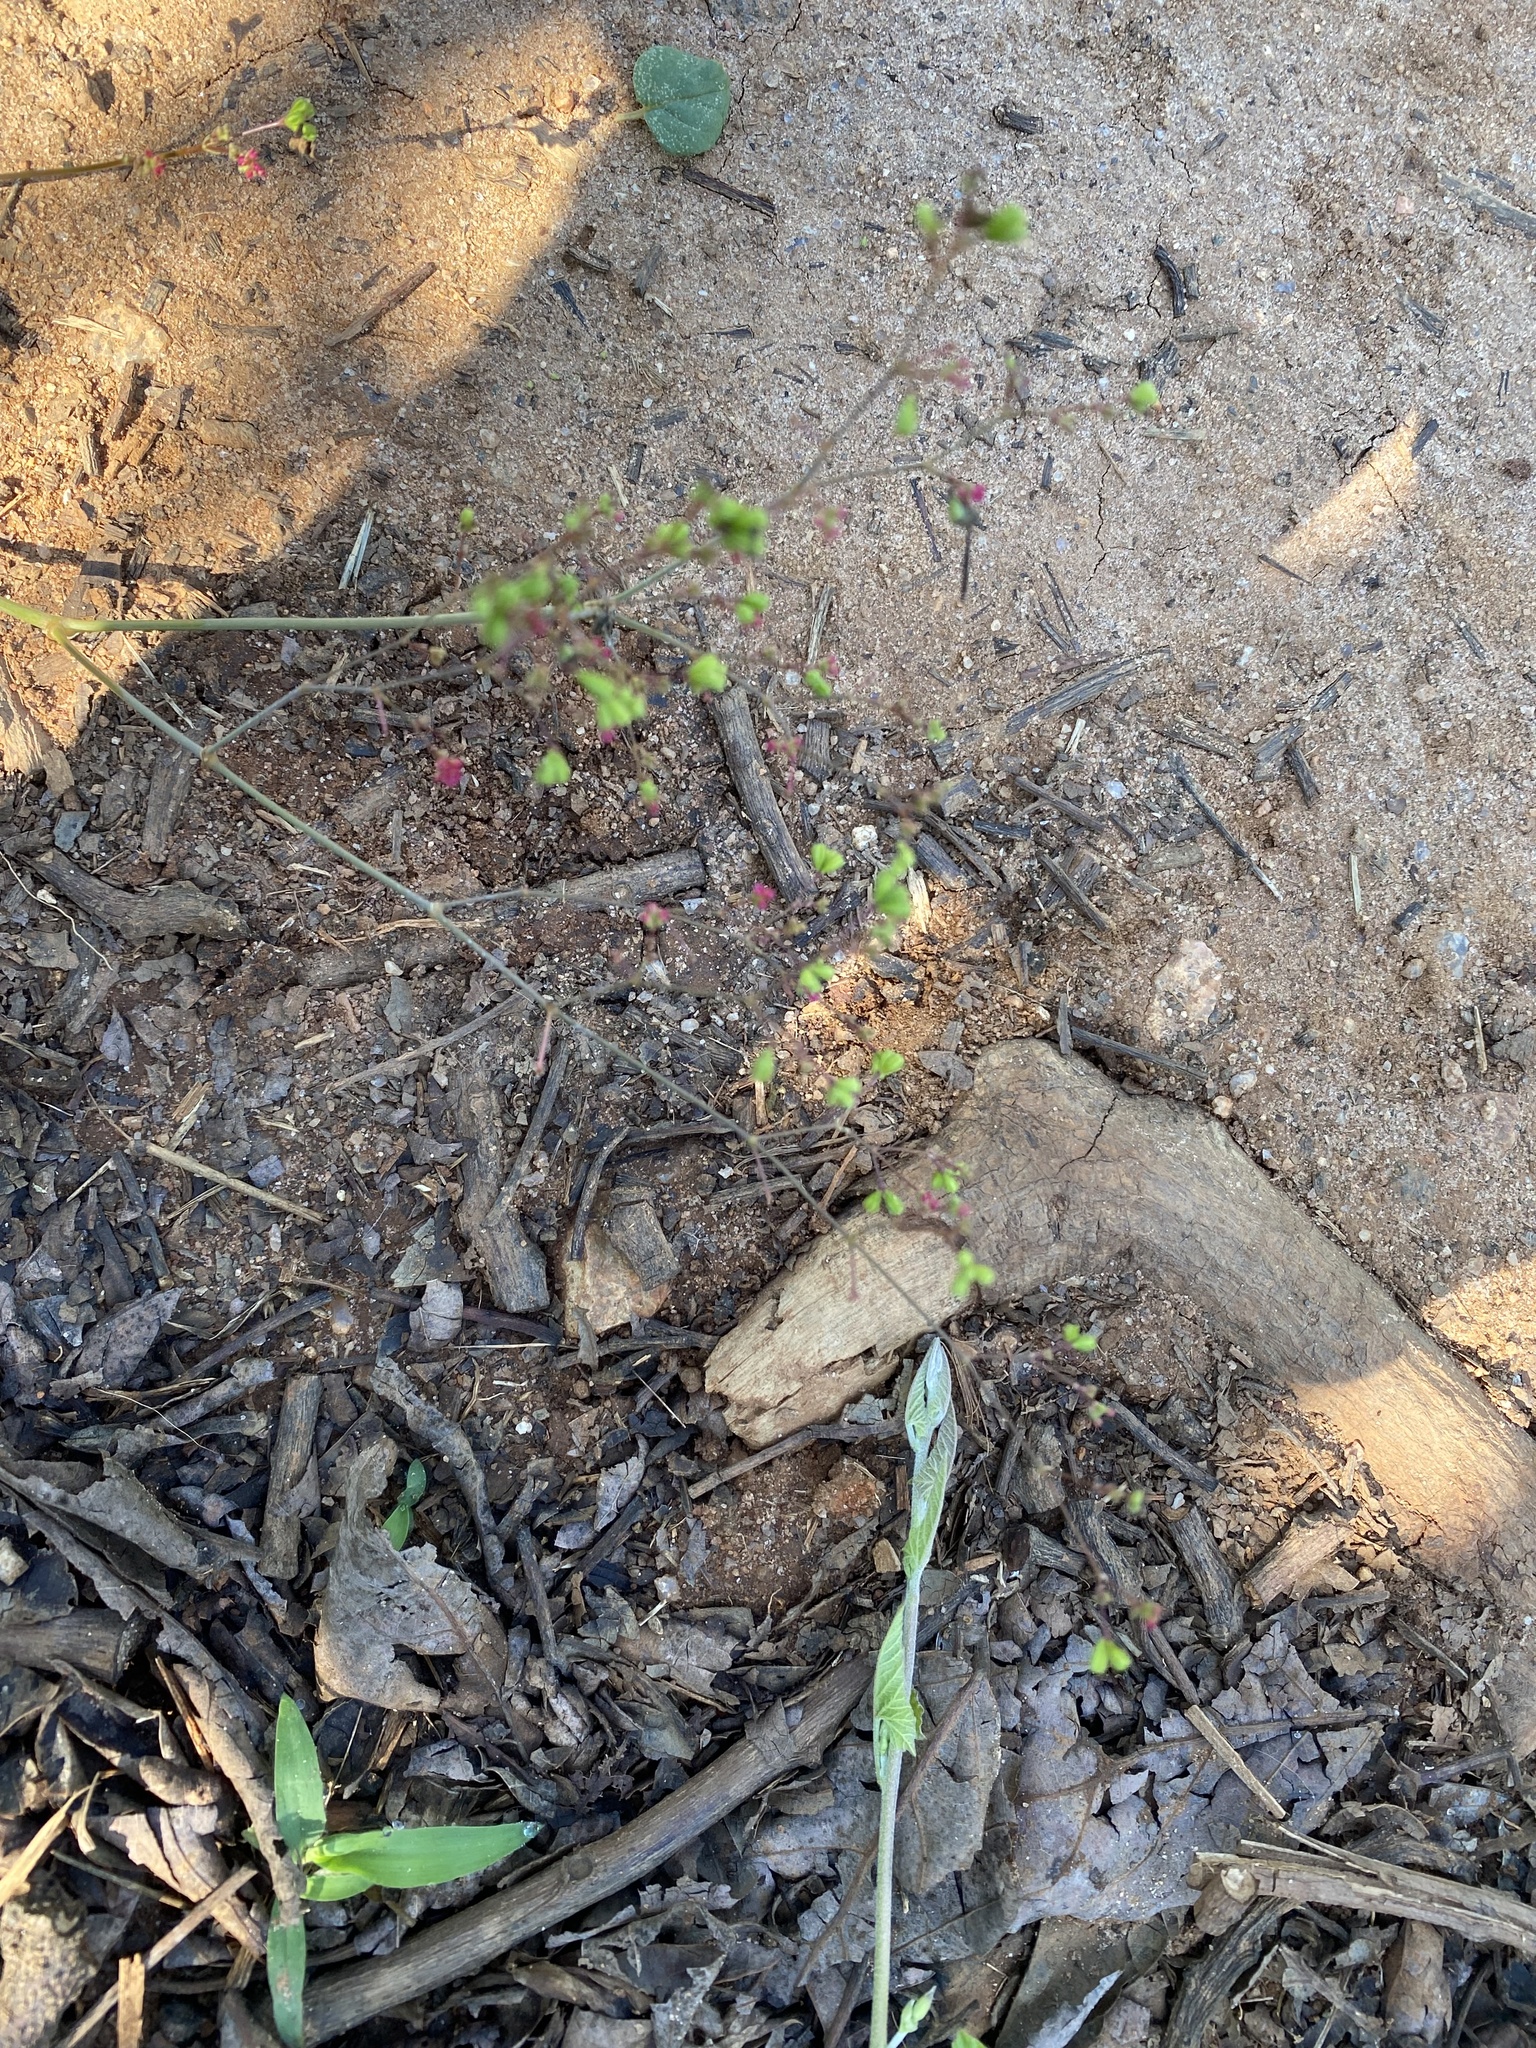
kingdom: Plantae
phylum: Tracheophyta
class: Magnoliopsida
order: Caryophyllales
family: Nyctaginaceae
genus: Boerhavia
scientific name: Boerhavia diffusa
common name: Red spiderling
